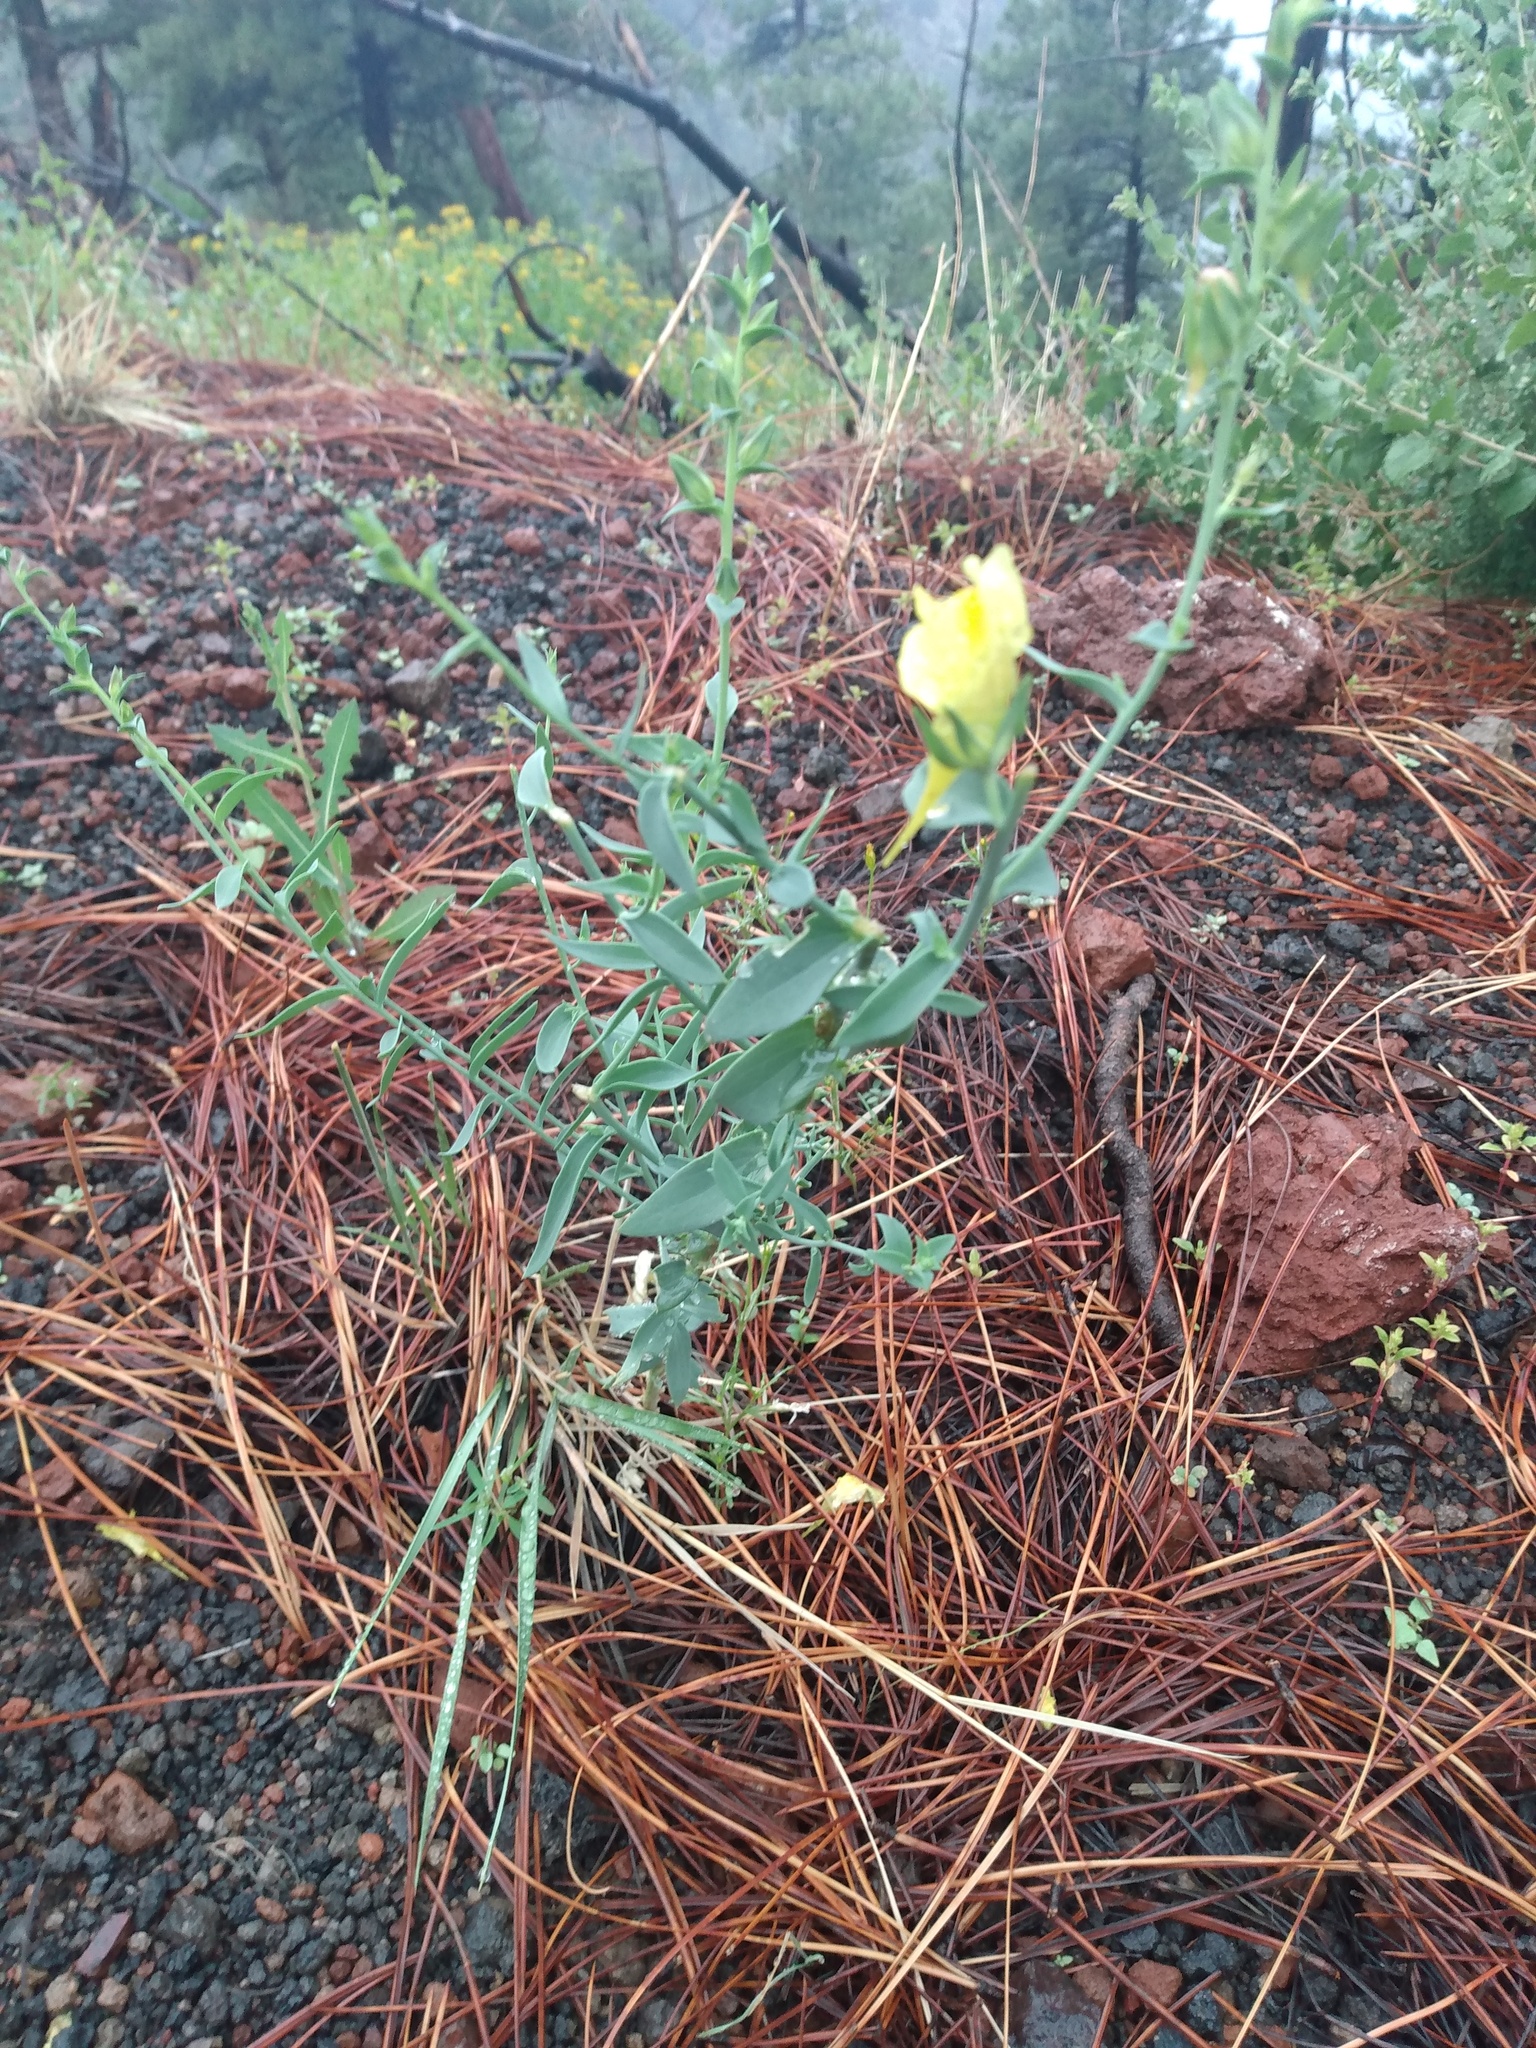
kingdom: Plantae
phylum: Tracheophyta
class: Magnoliopsida
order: Lamiales
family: Plantaginaceae
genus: Linaria
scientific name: Linaria dalmatica
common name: Dalmatian toadflax
